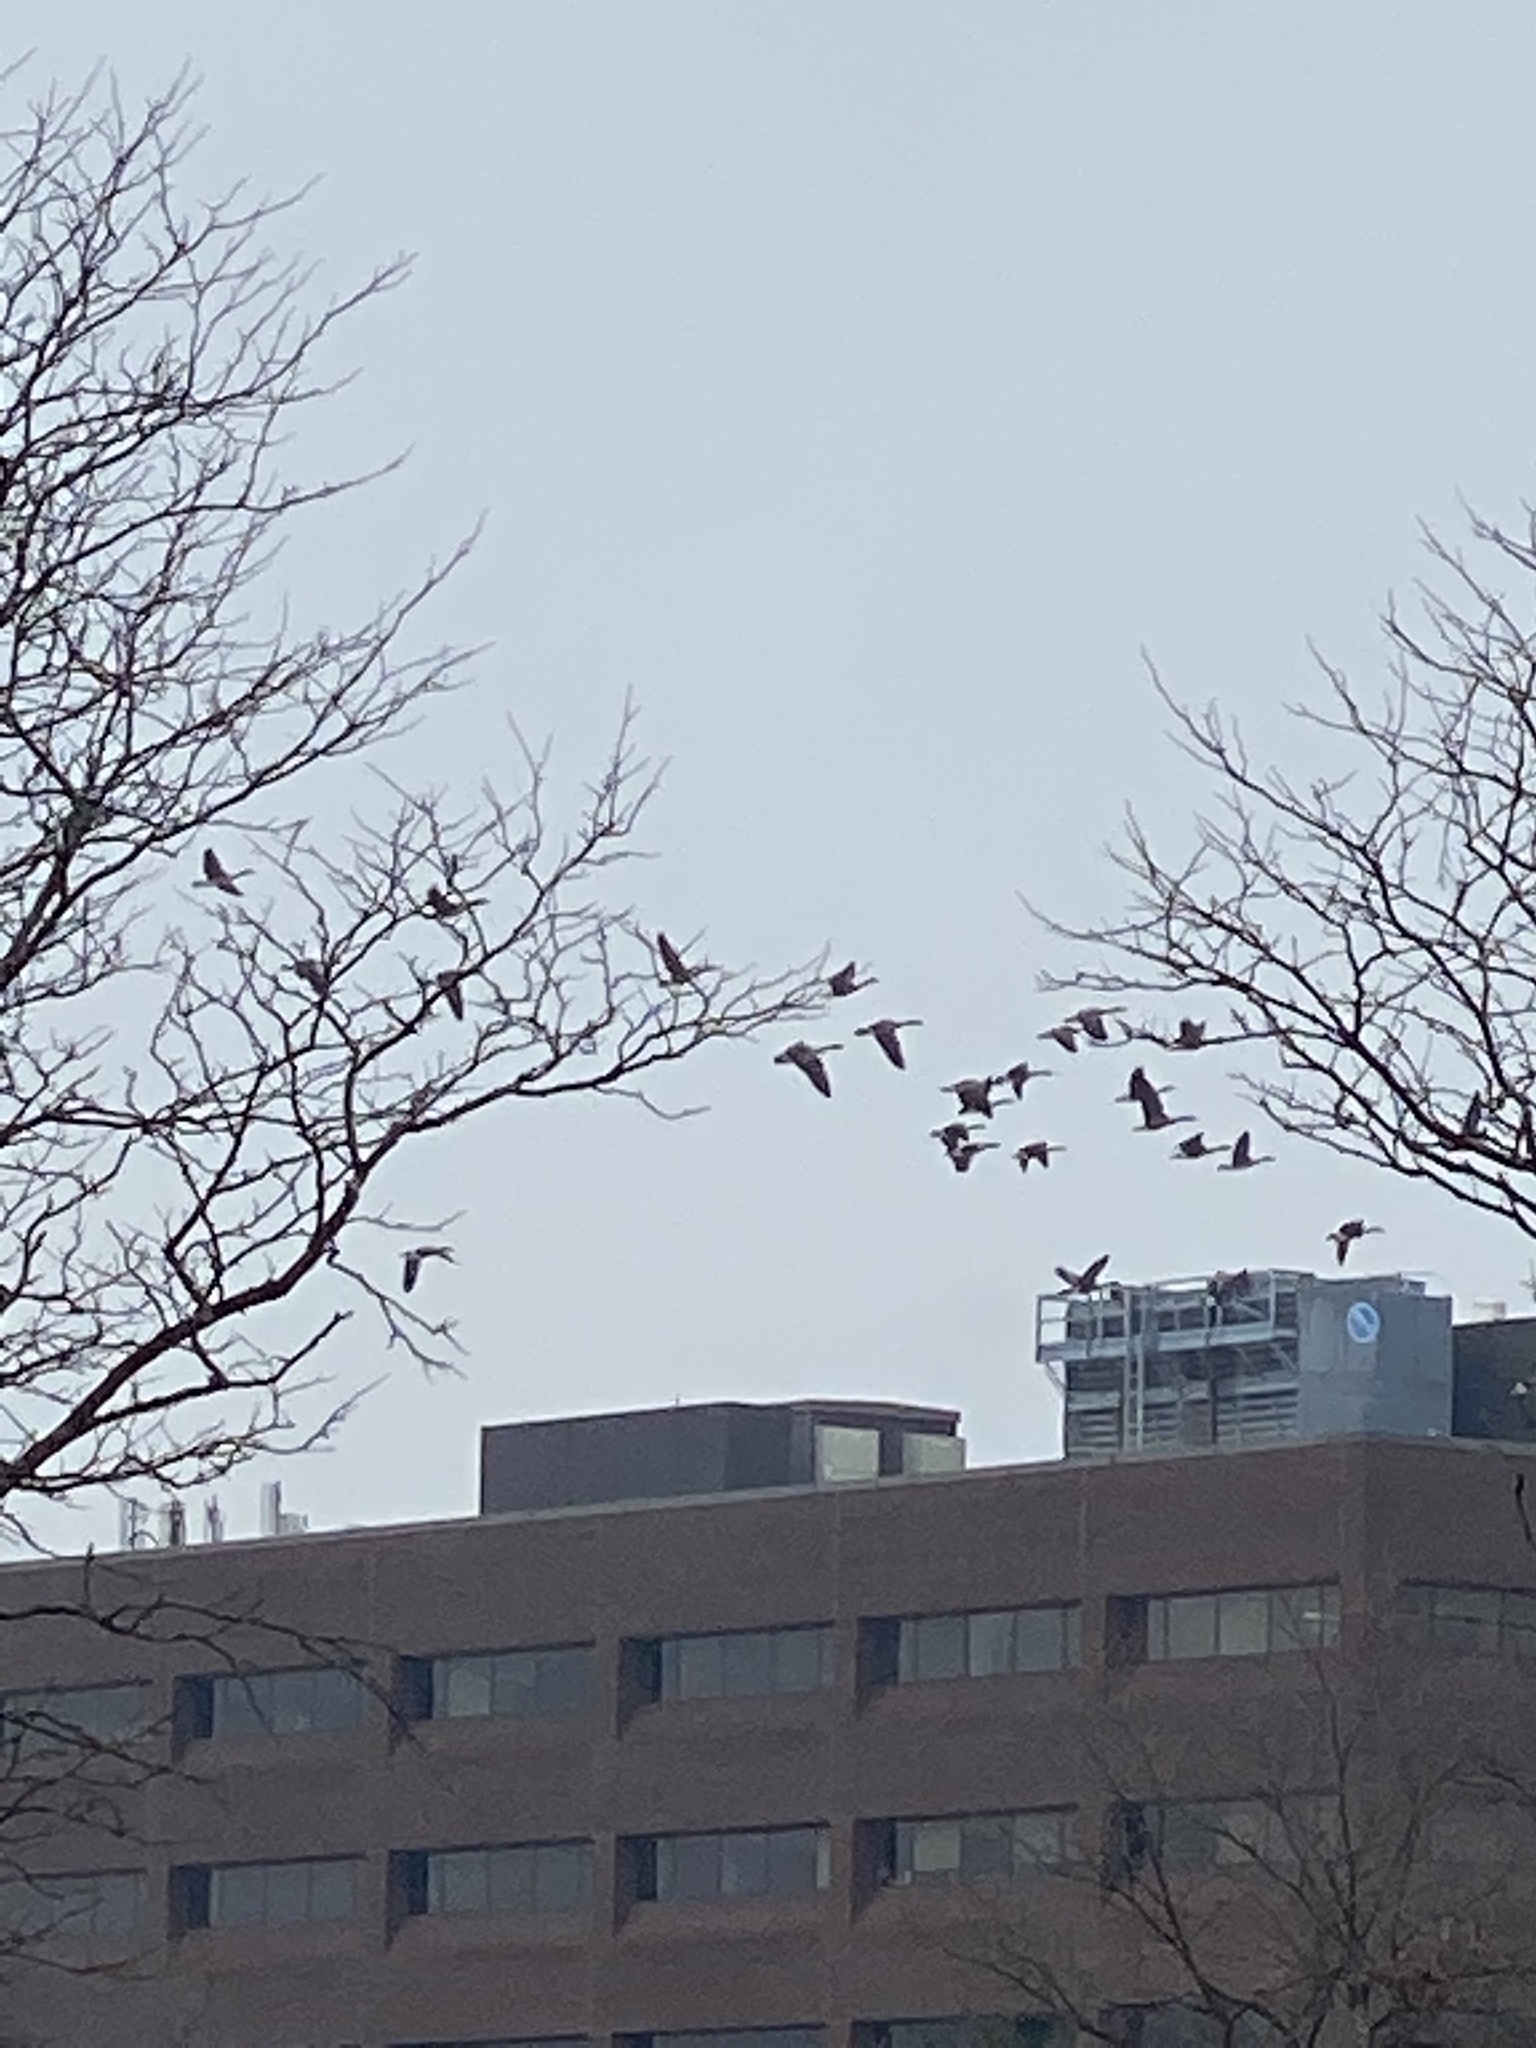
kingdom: Animalia
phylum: Chordata
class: Aves
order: Anseriformes
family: Anatidae
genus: Branta
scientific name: Branta canadensis
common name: Canada goose
